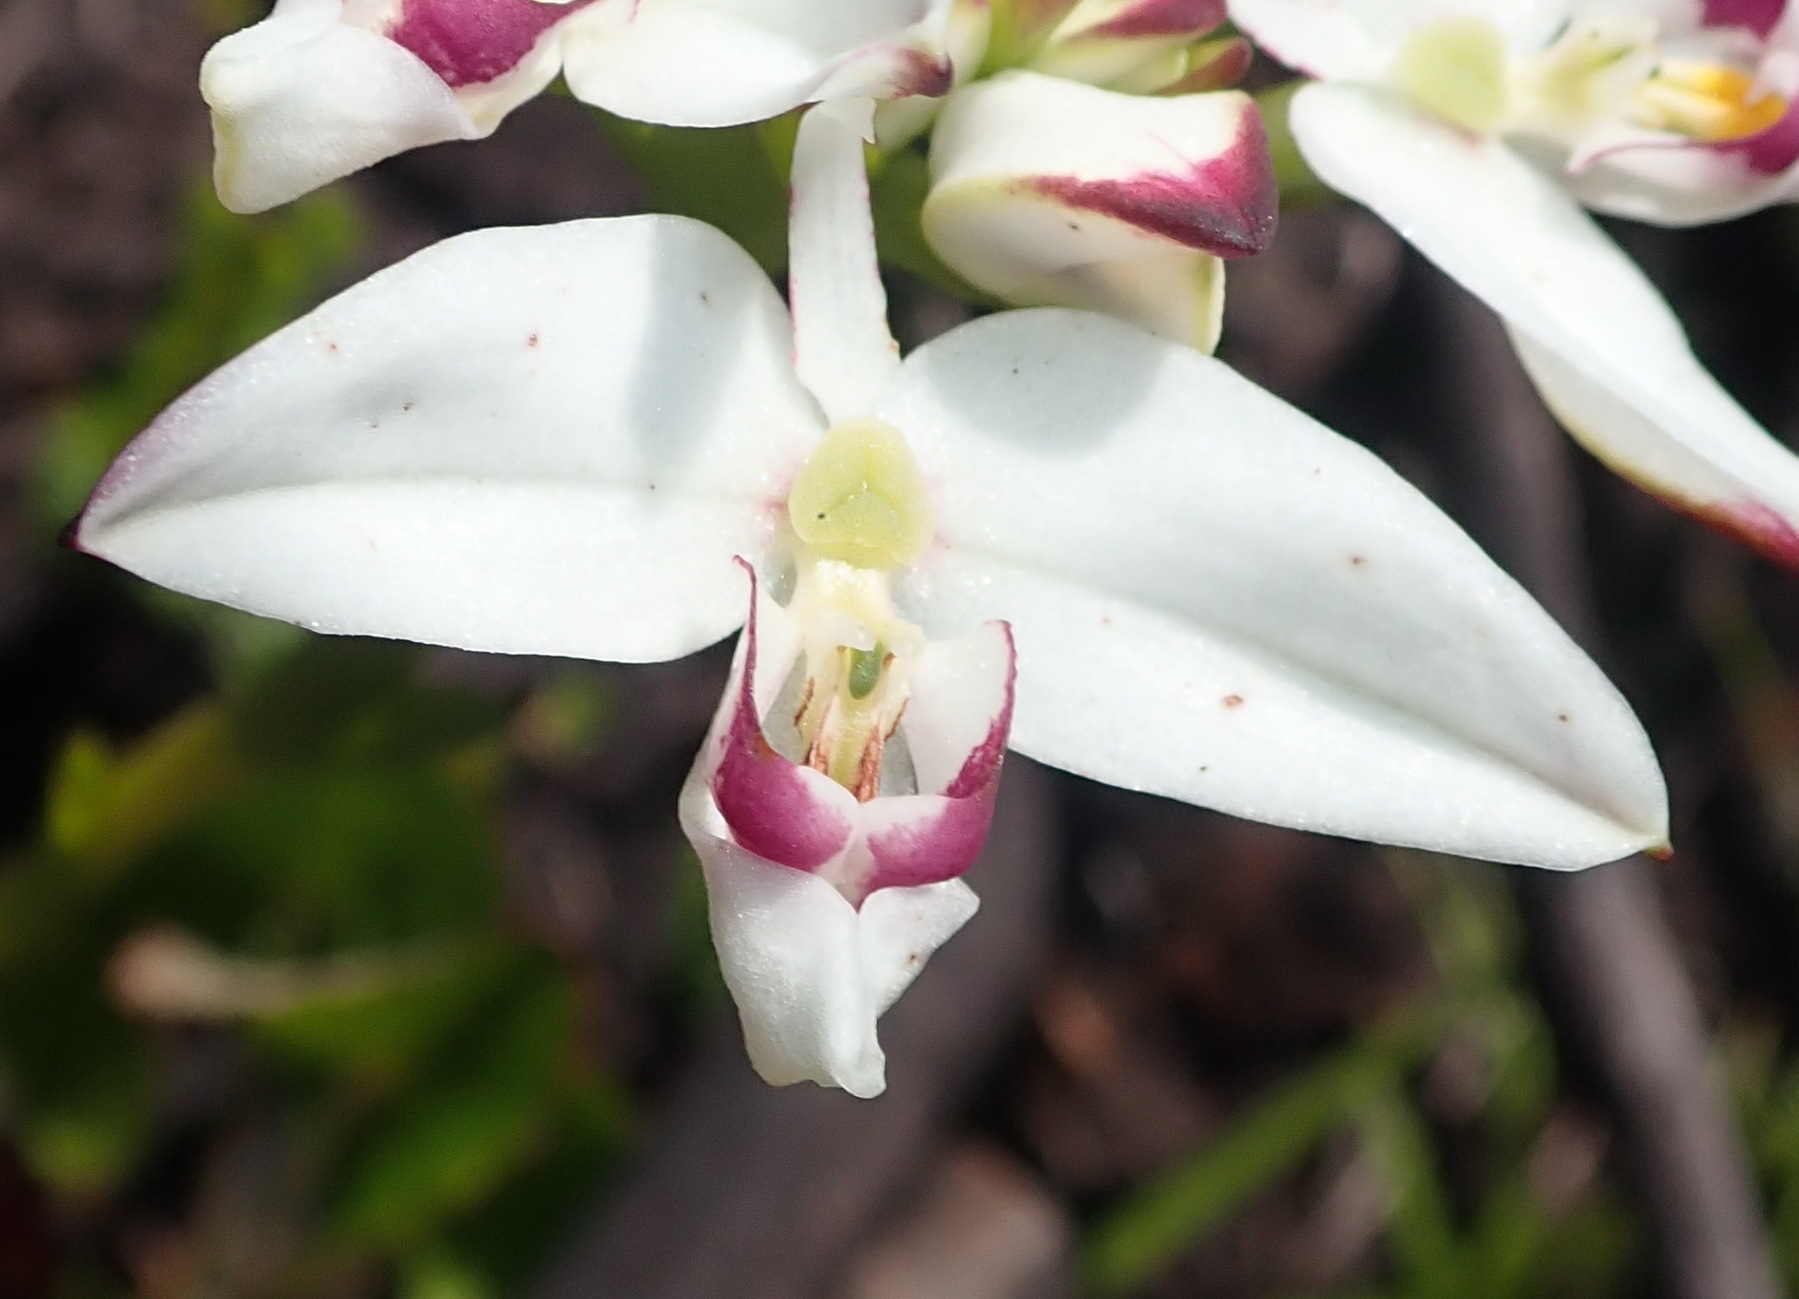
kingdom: Plantae
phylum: Tracheophyta
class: Liliopsida
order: Asparagales
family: Orchidaceae
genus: Disa
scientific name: Disa bivalvata
